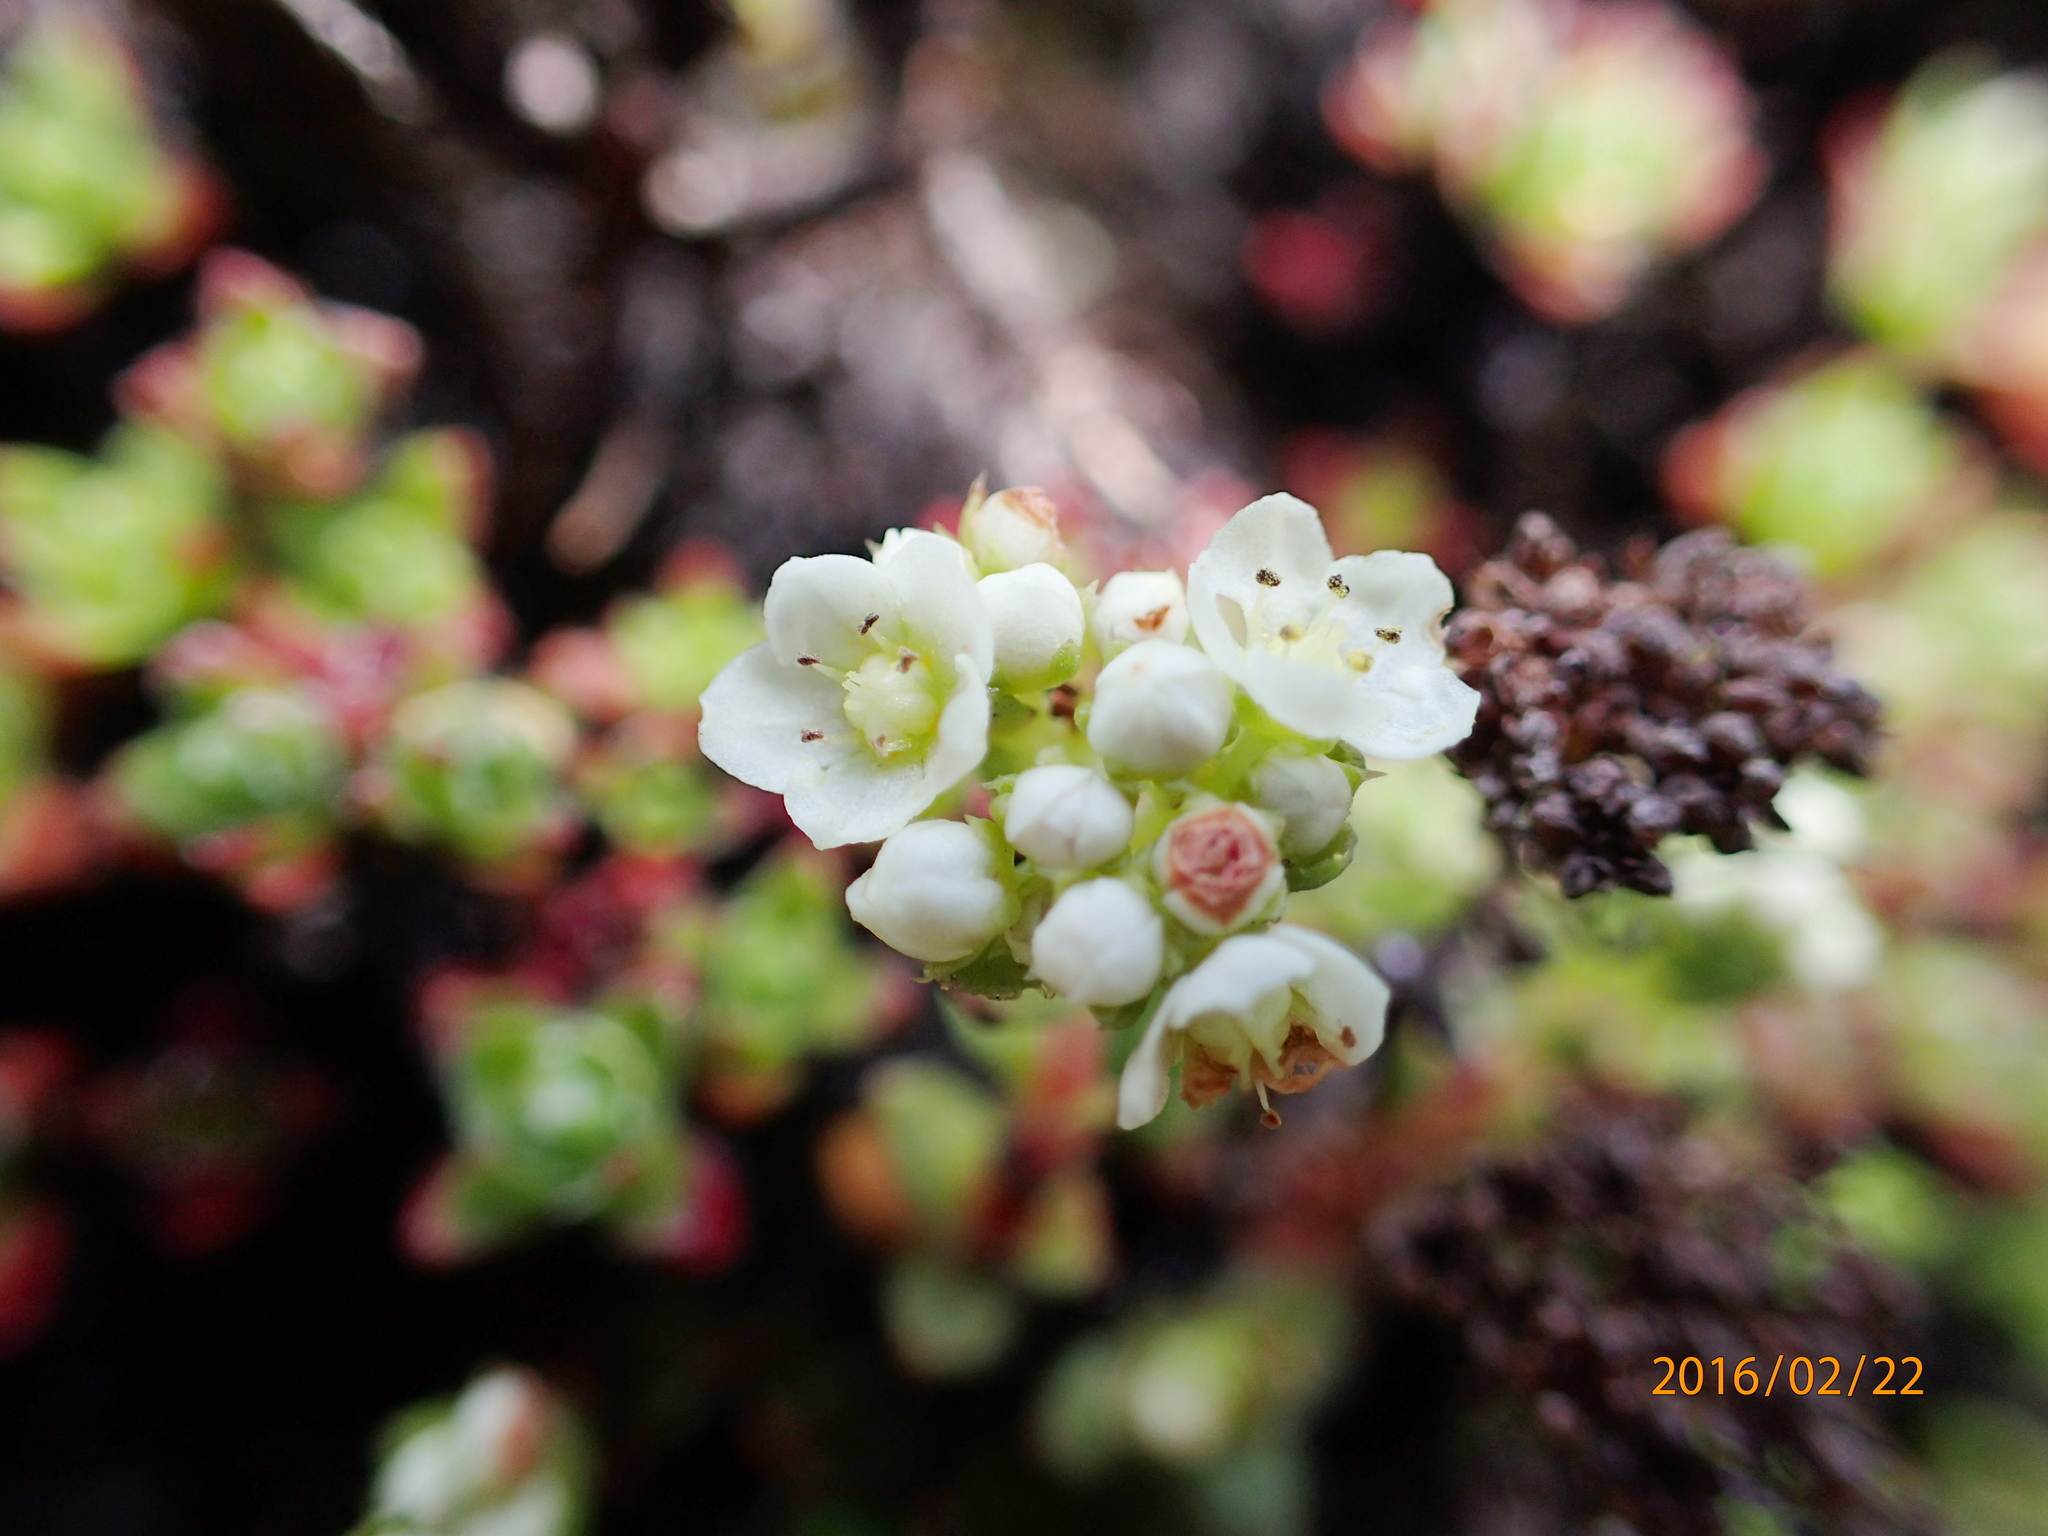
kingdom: Plantae
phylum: Tracheophyta
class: Magnoliopsida
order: Saxifragales
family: Crassulaceae
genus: Crassula
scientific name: Crassula setulosa
